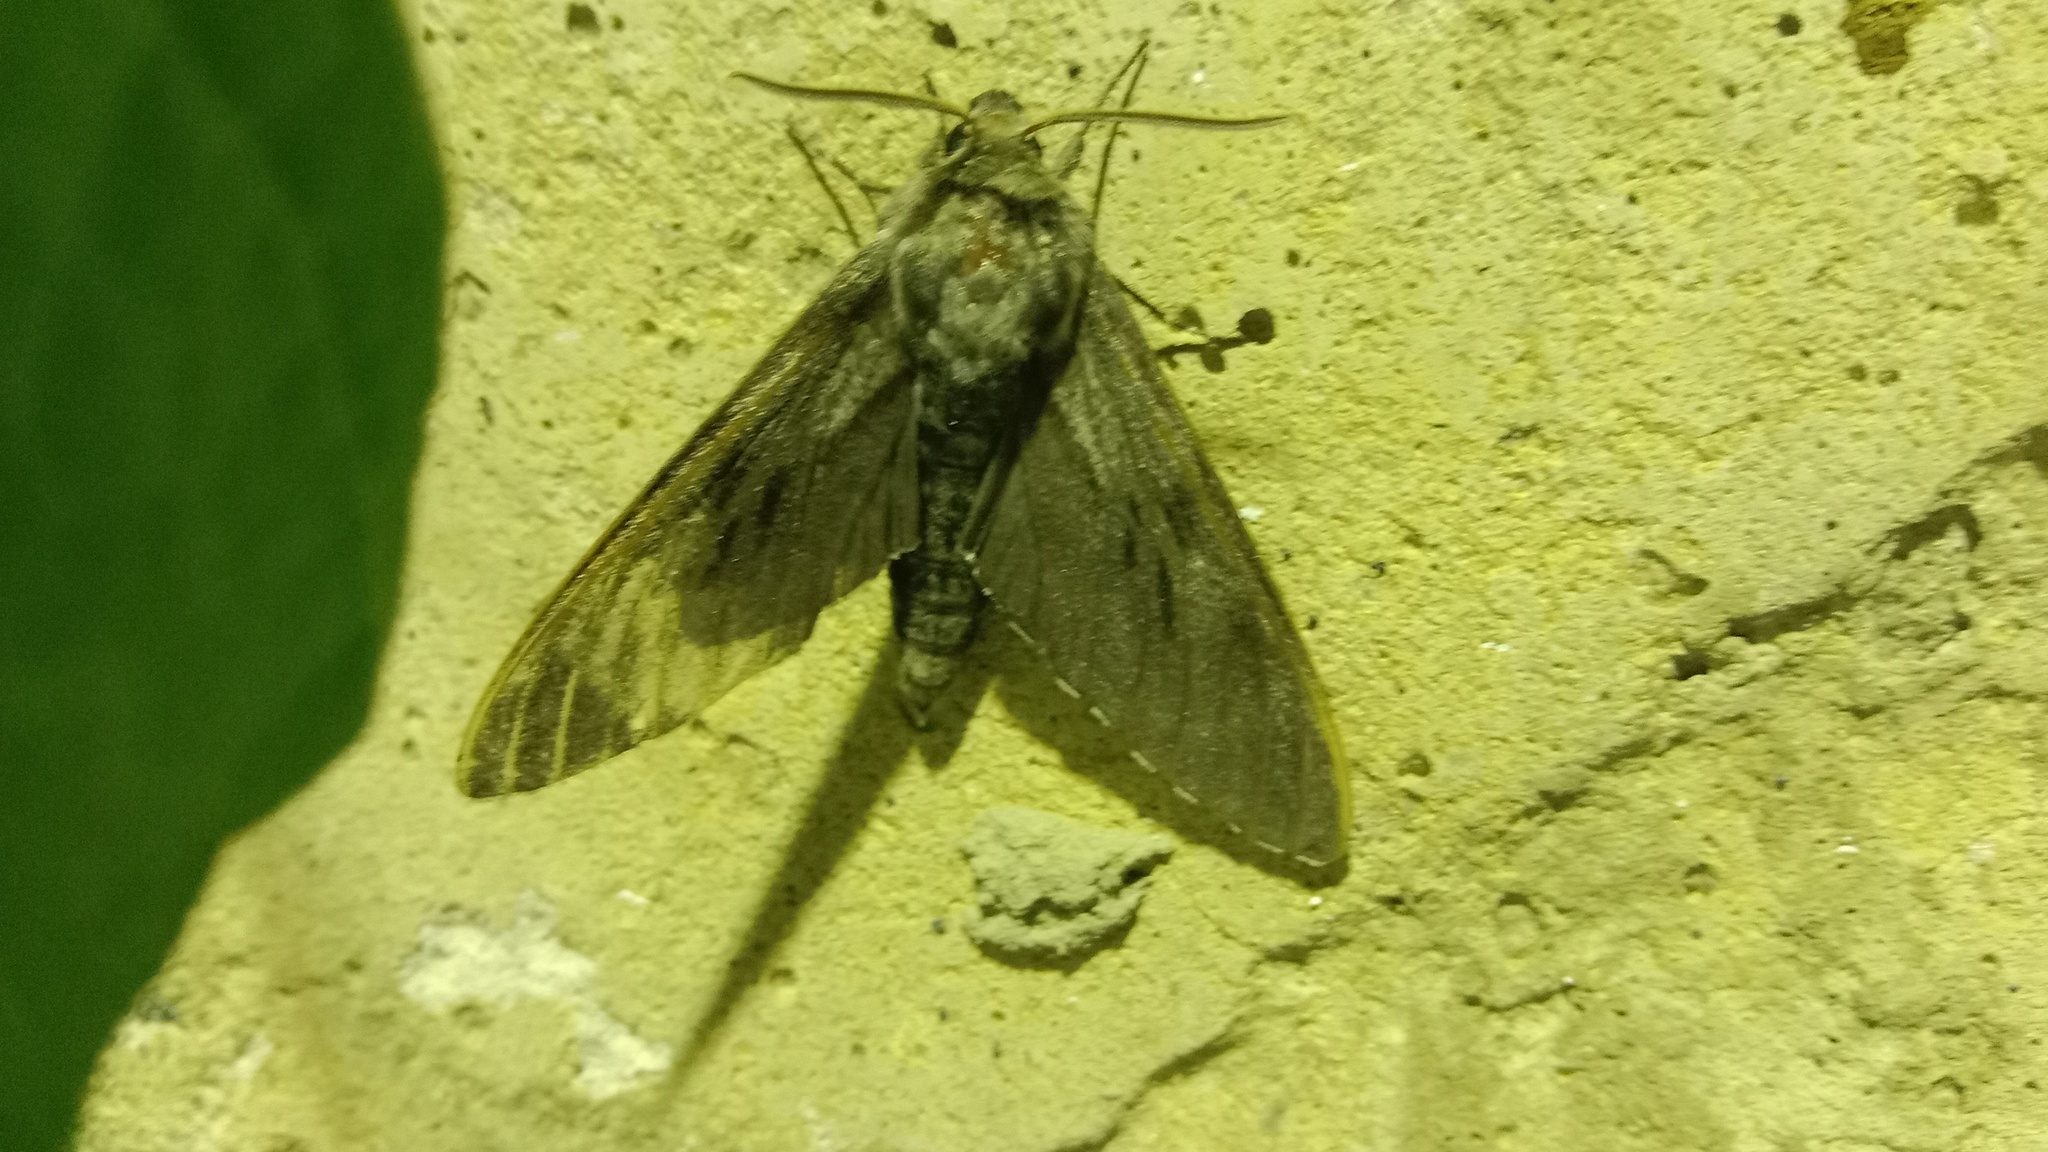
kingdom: Animalia
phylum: Arthropoda
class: Insecta
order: Lepidoptera
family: Sphingidae
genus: Sphinx
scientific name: Sphinx pinastri
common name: Pine hawk-moth
